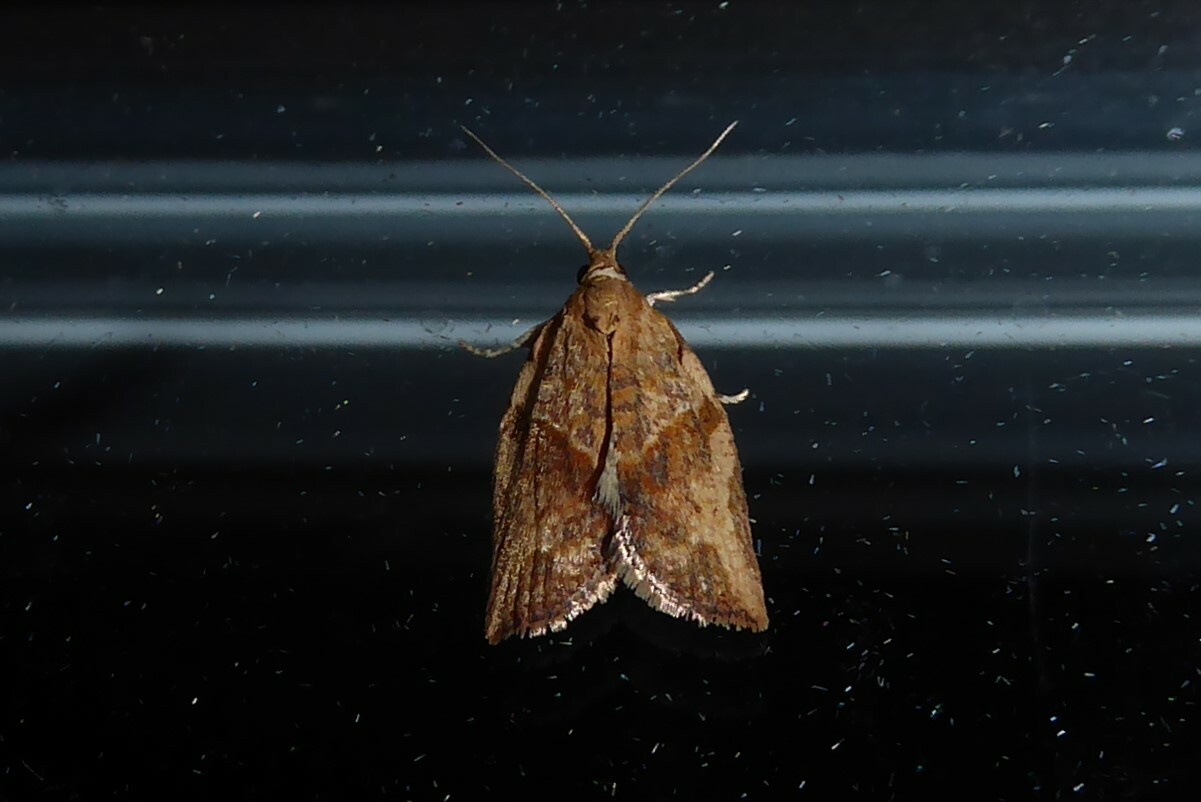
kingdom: Animalia
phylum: Arthropoda
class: Insecta
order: Lepidoptera
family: Tortricidae
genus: Epiphyas
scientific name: Epiphyas postvittana
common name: Light brown apple moth
